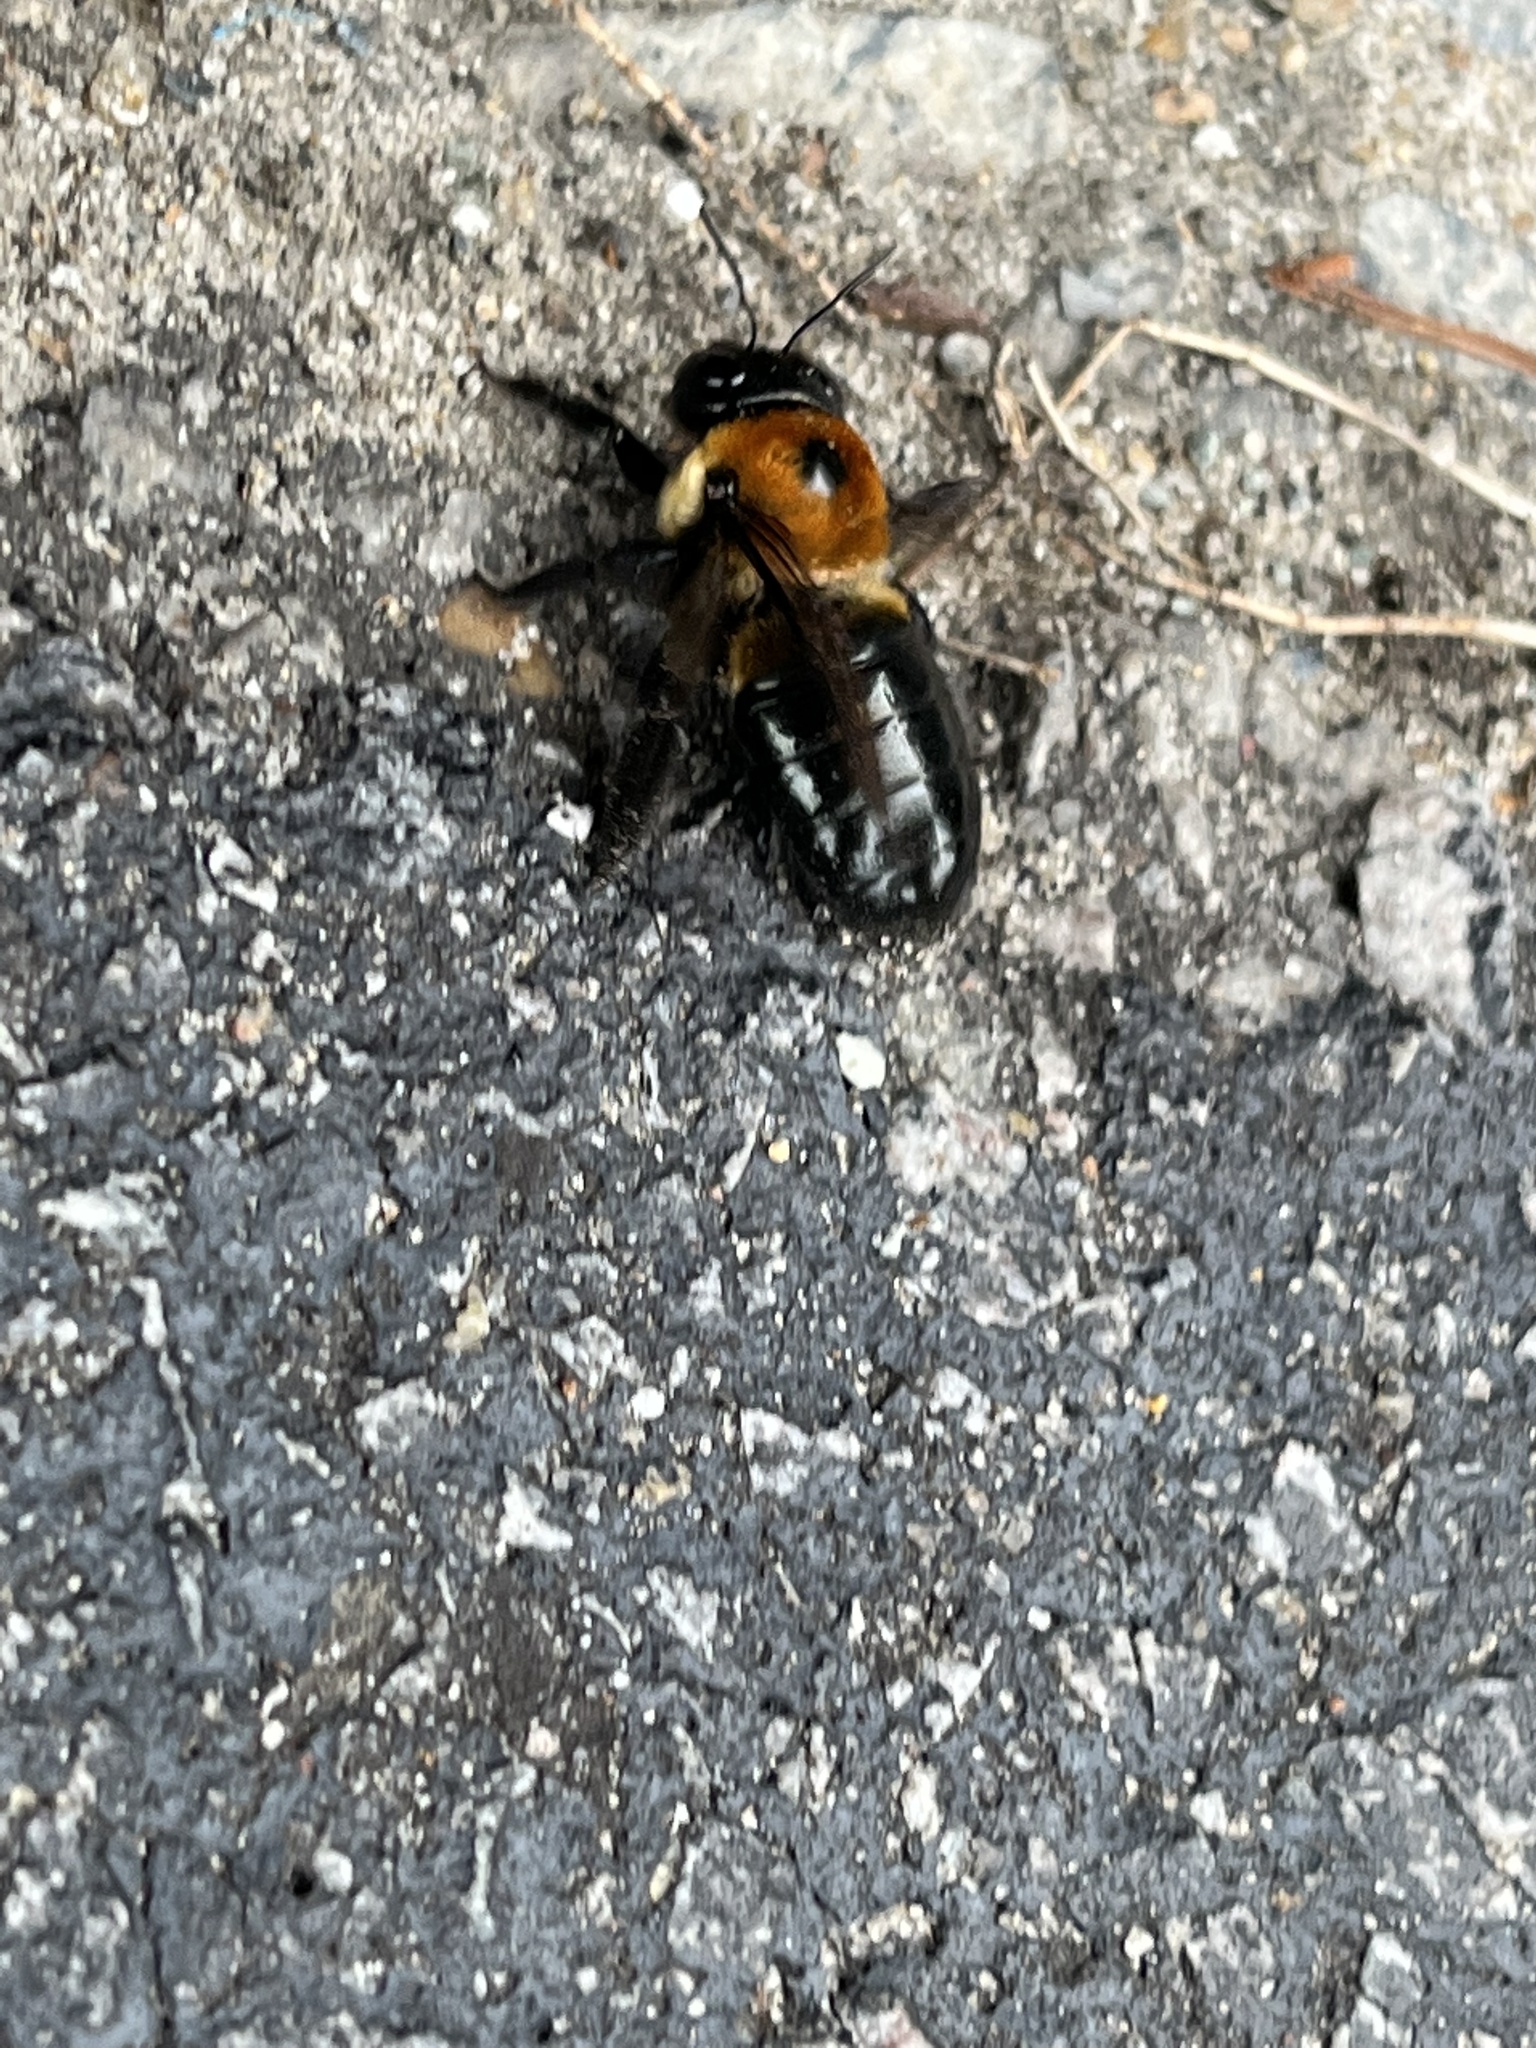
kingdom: Animalia
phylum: Arthropoda
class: Insecta
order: Hymenoptera
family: Apidae
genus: Xylocopa
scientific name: Xylocopa virginica
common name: Carpenter bee
